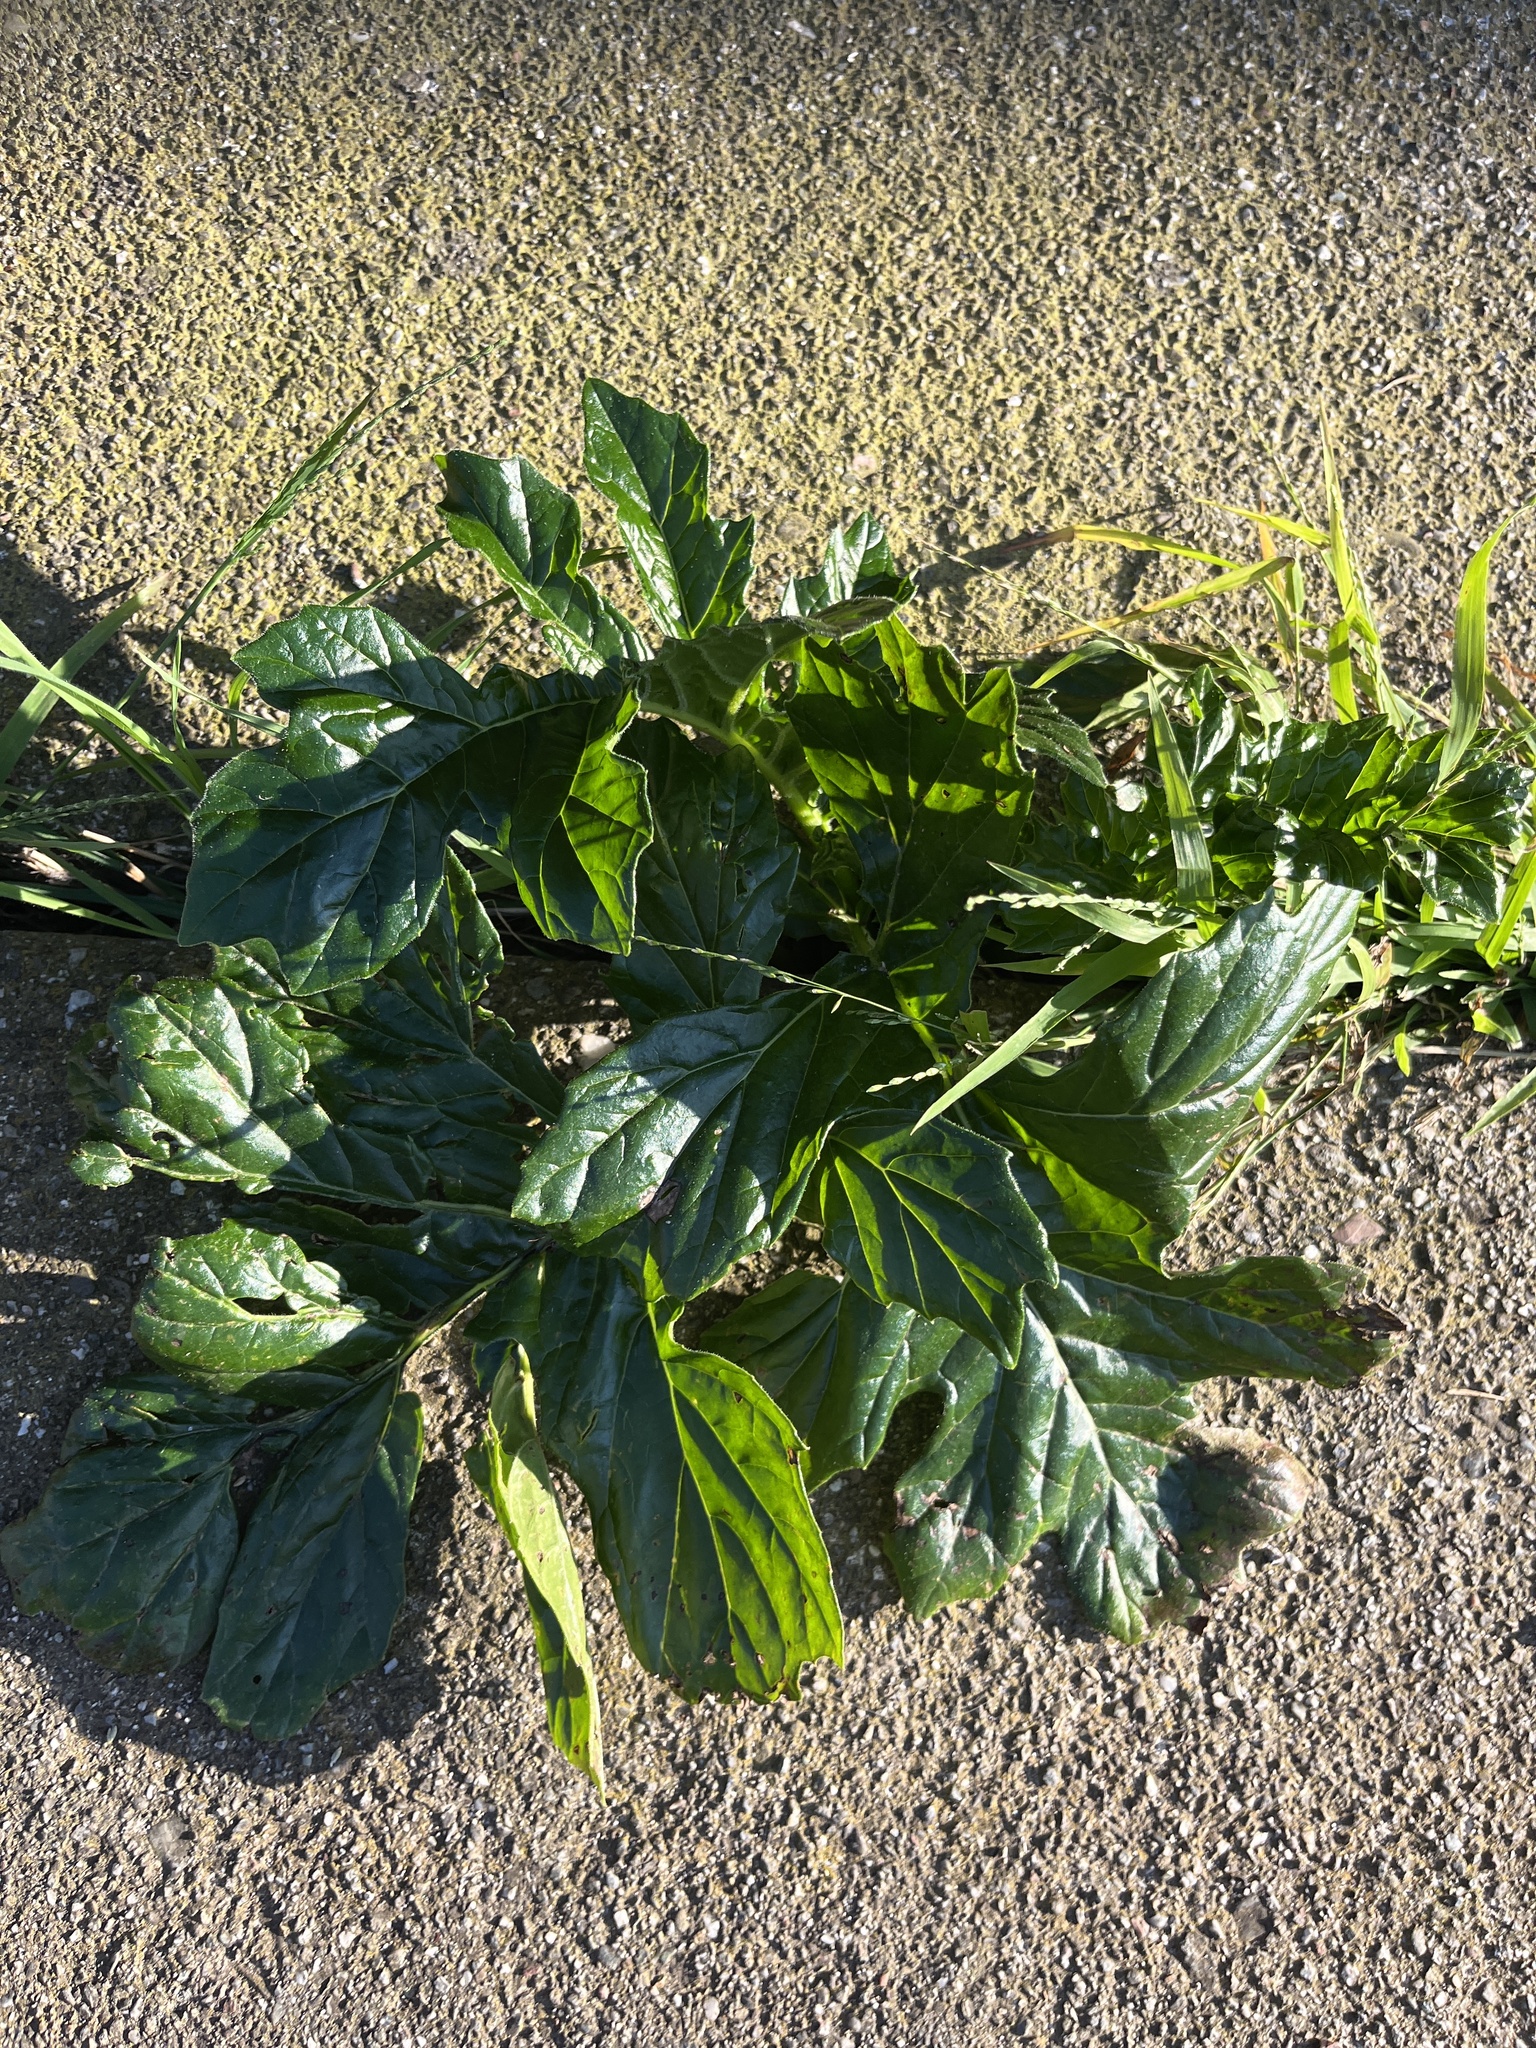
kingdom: Plantae
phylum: Tracheophyta
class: Magnoliopsida
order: Lamiales
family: Acanthaceae
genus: Acanthus
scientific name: Acanthus mollis
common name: Bear's-breech
